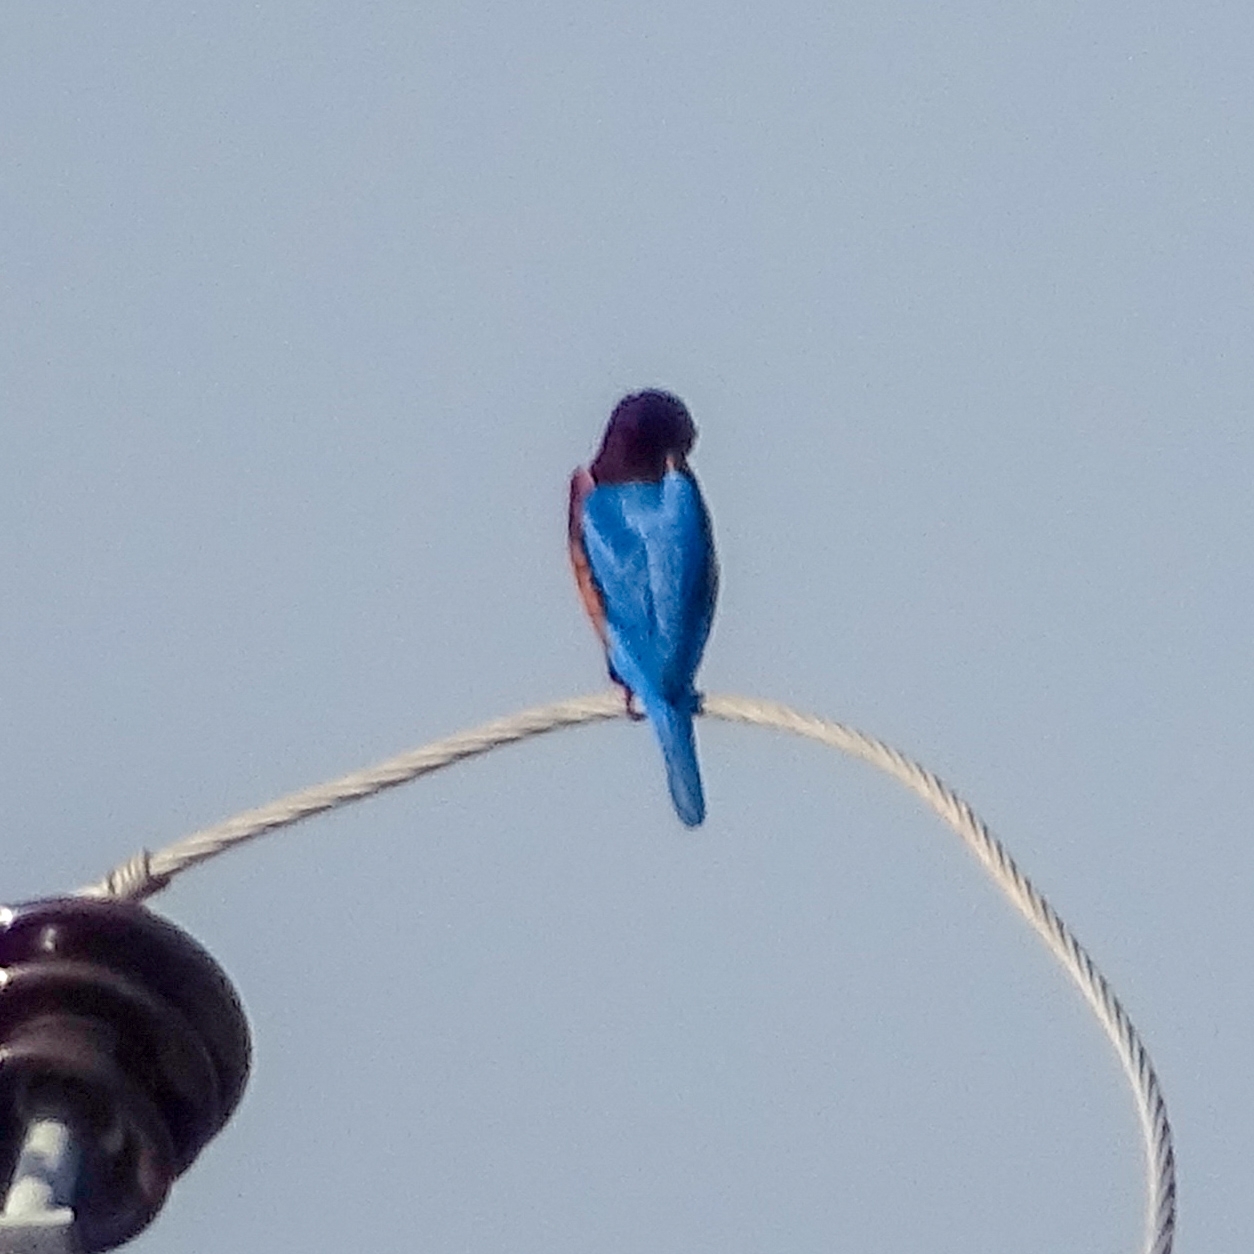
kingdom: Animalia
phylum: Chordata
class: Aves
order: Coraciiformes
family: Alcedinidae
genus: Halcyon
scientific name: Halcyon smyrnensis
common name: White-throated kingfisher
